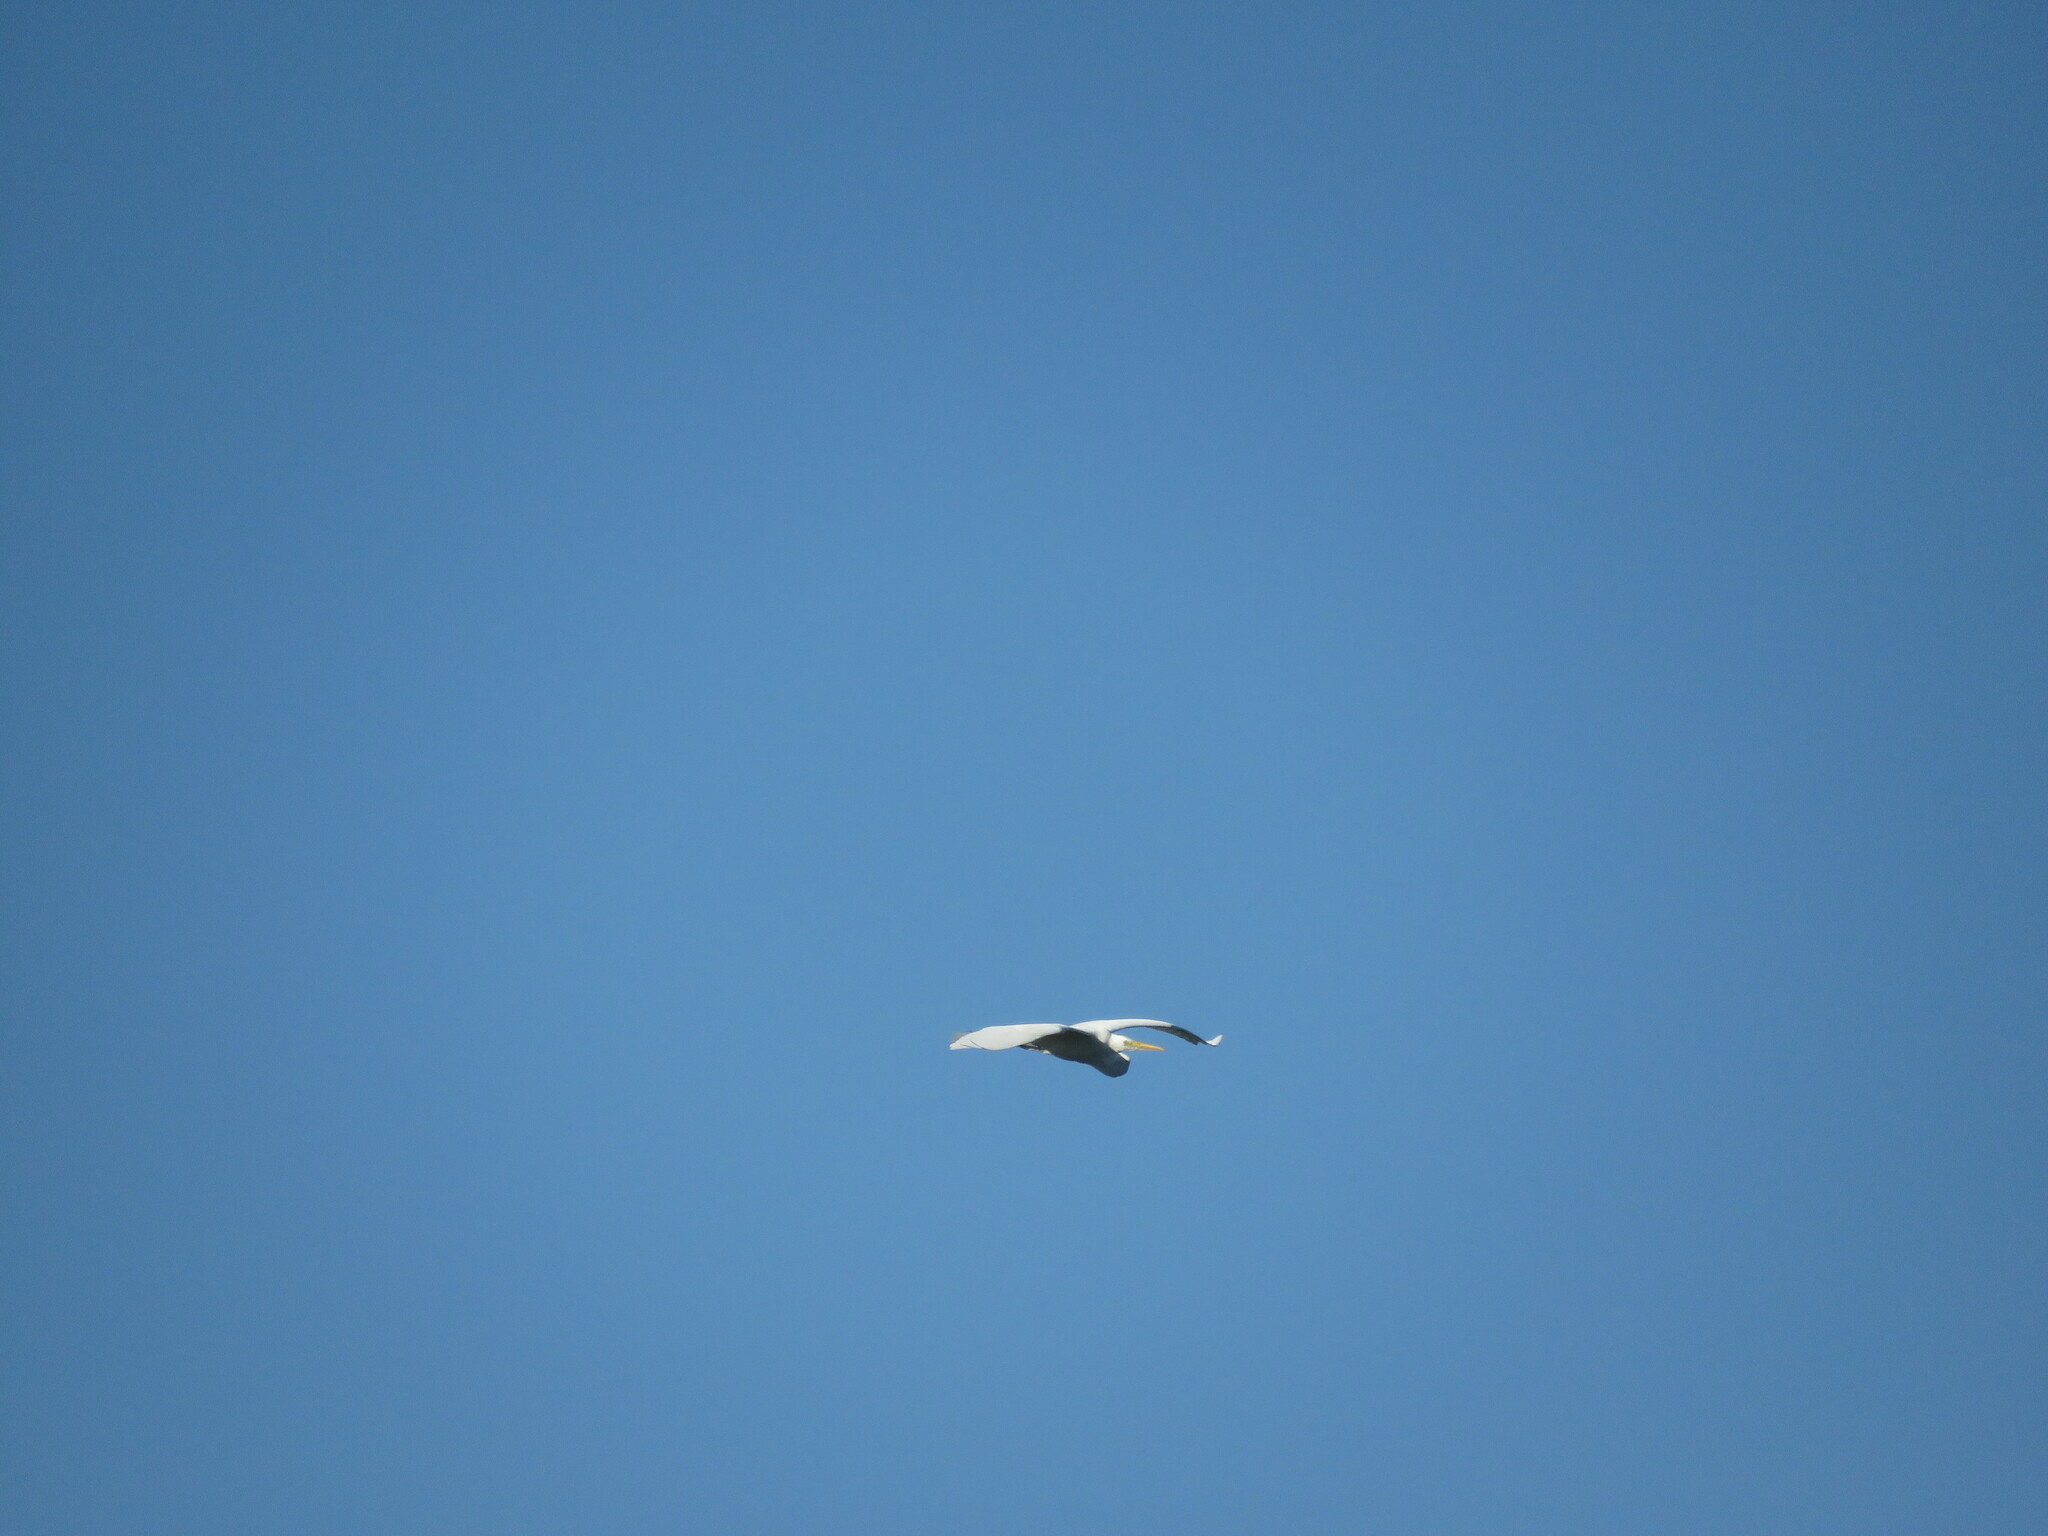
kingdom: Animalia
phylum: Chordata
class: Aves
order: Pelecaniformes
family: Ardeidae
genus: Ardea
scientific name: Ardea alba
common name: Great egret
